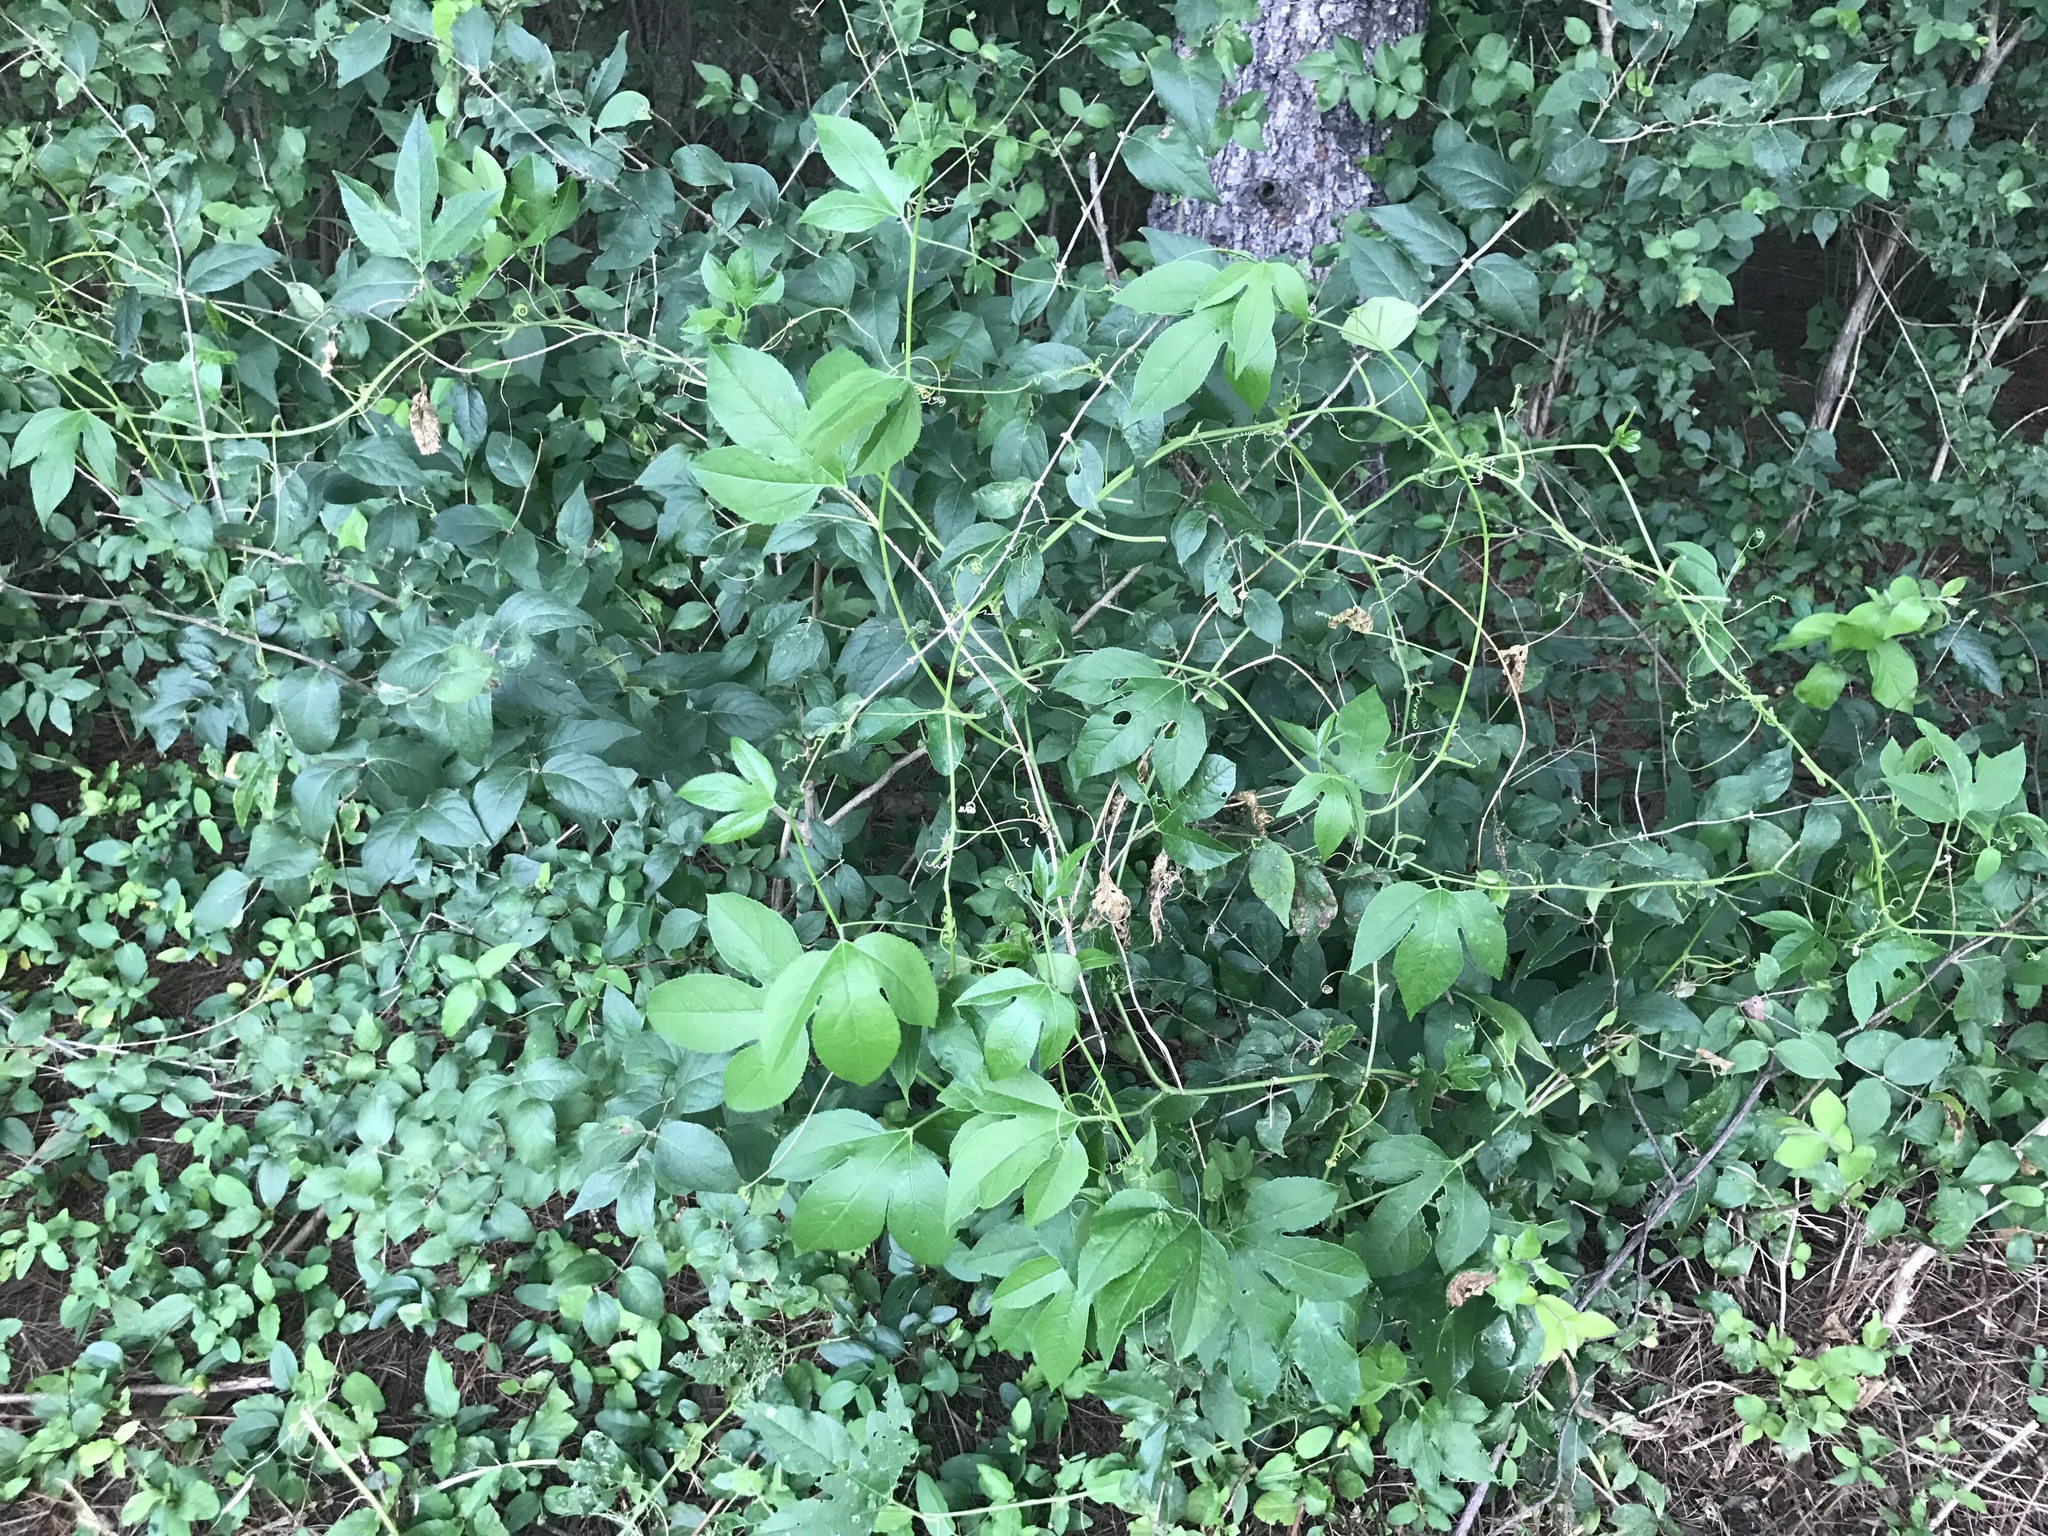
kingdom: Plantae
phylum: Tracheophyta
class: Magnoliopsida
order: Malpighiales
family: Passifloraceae
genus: Passiflora
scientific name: Passiflora incarnata
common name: Apricot-vine
